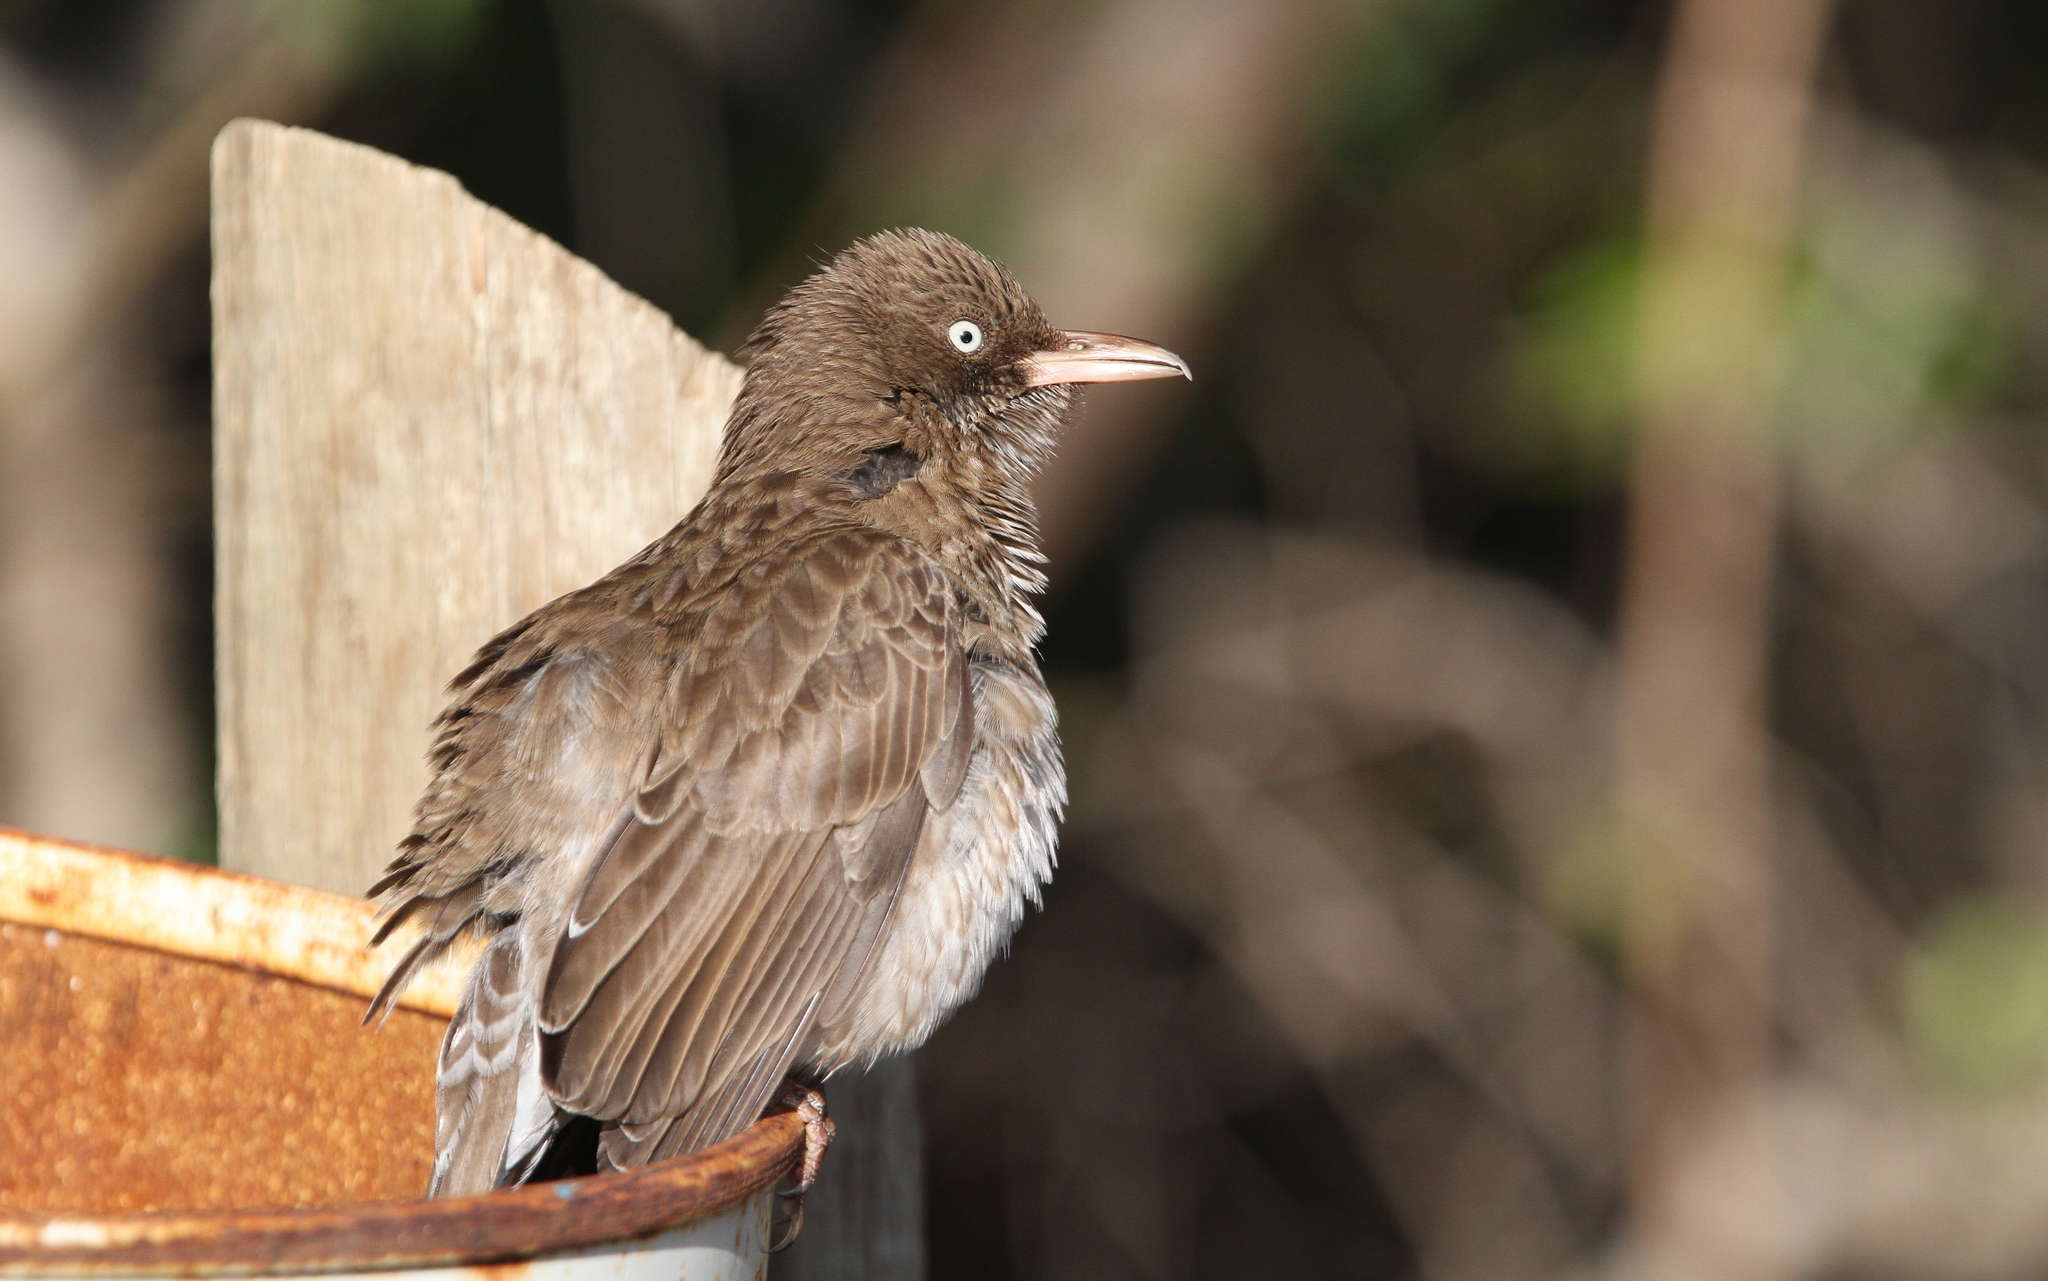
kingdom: Animalia
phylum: Chordata
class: Aves
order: Passeriformes
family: Mimidae
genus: Margarops
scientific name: Margarops fuscatus
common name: Pearly-eyed thrasher
